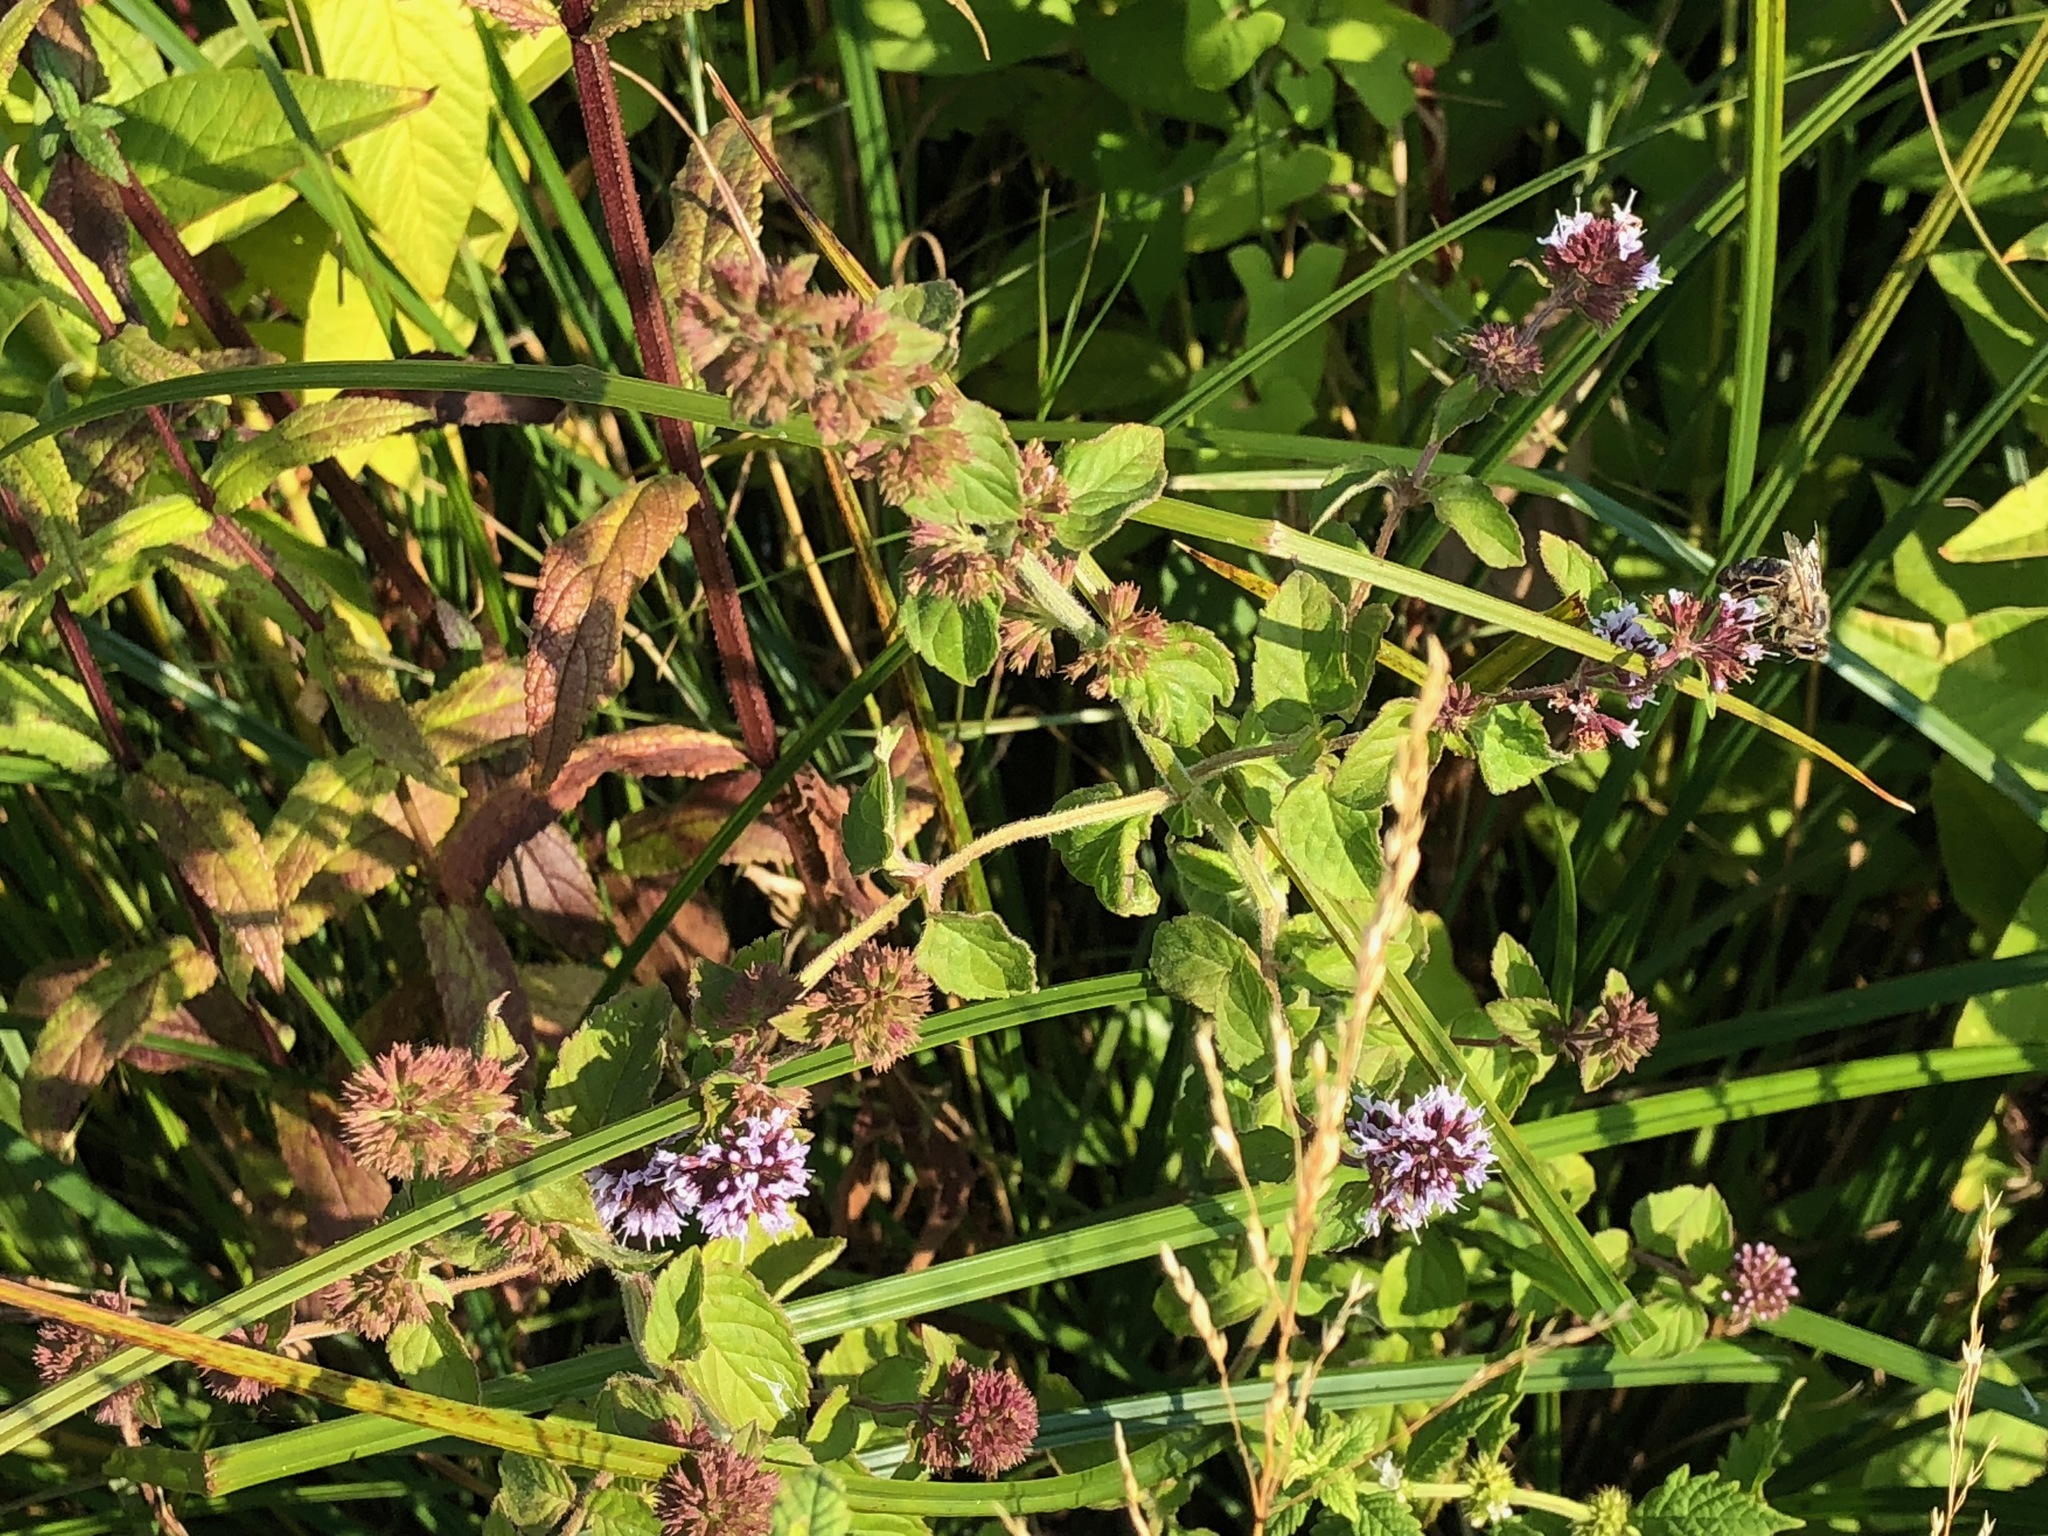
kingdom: Plantae
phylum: Tracheophyta
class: Magnoliopsida
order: Lamiales
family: Lamiaceae
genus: Mentha
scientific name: Mentha aquatica
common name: Water mint
